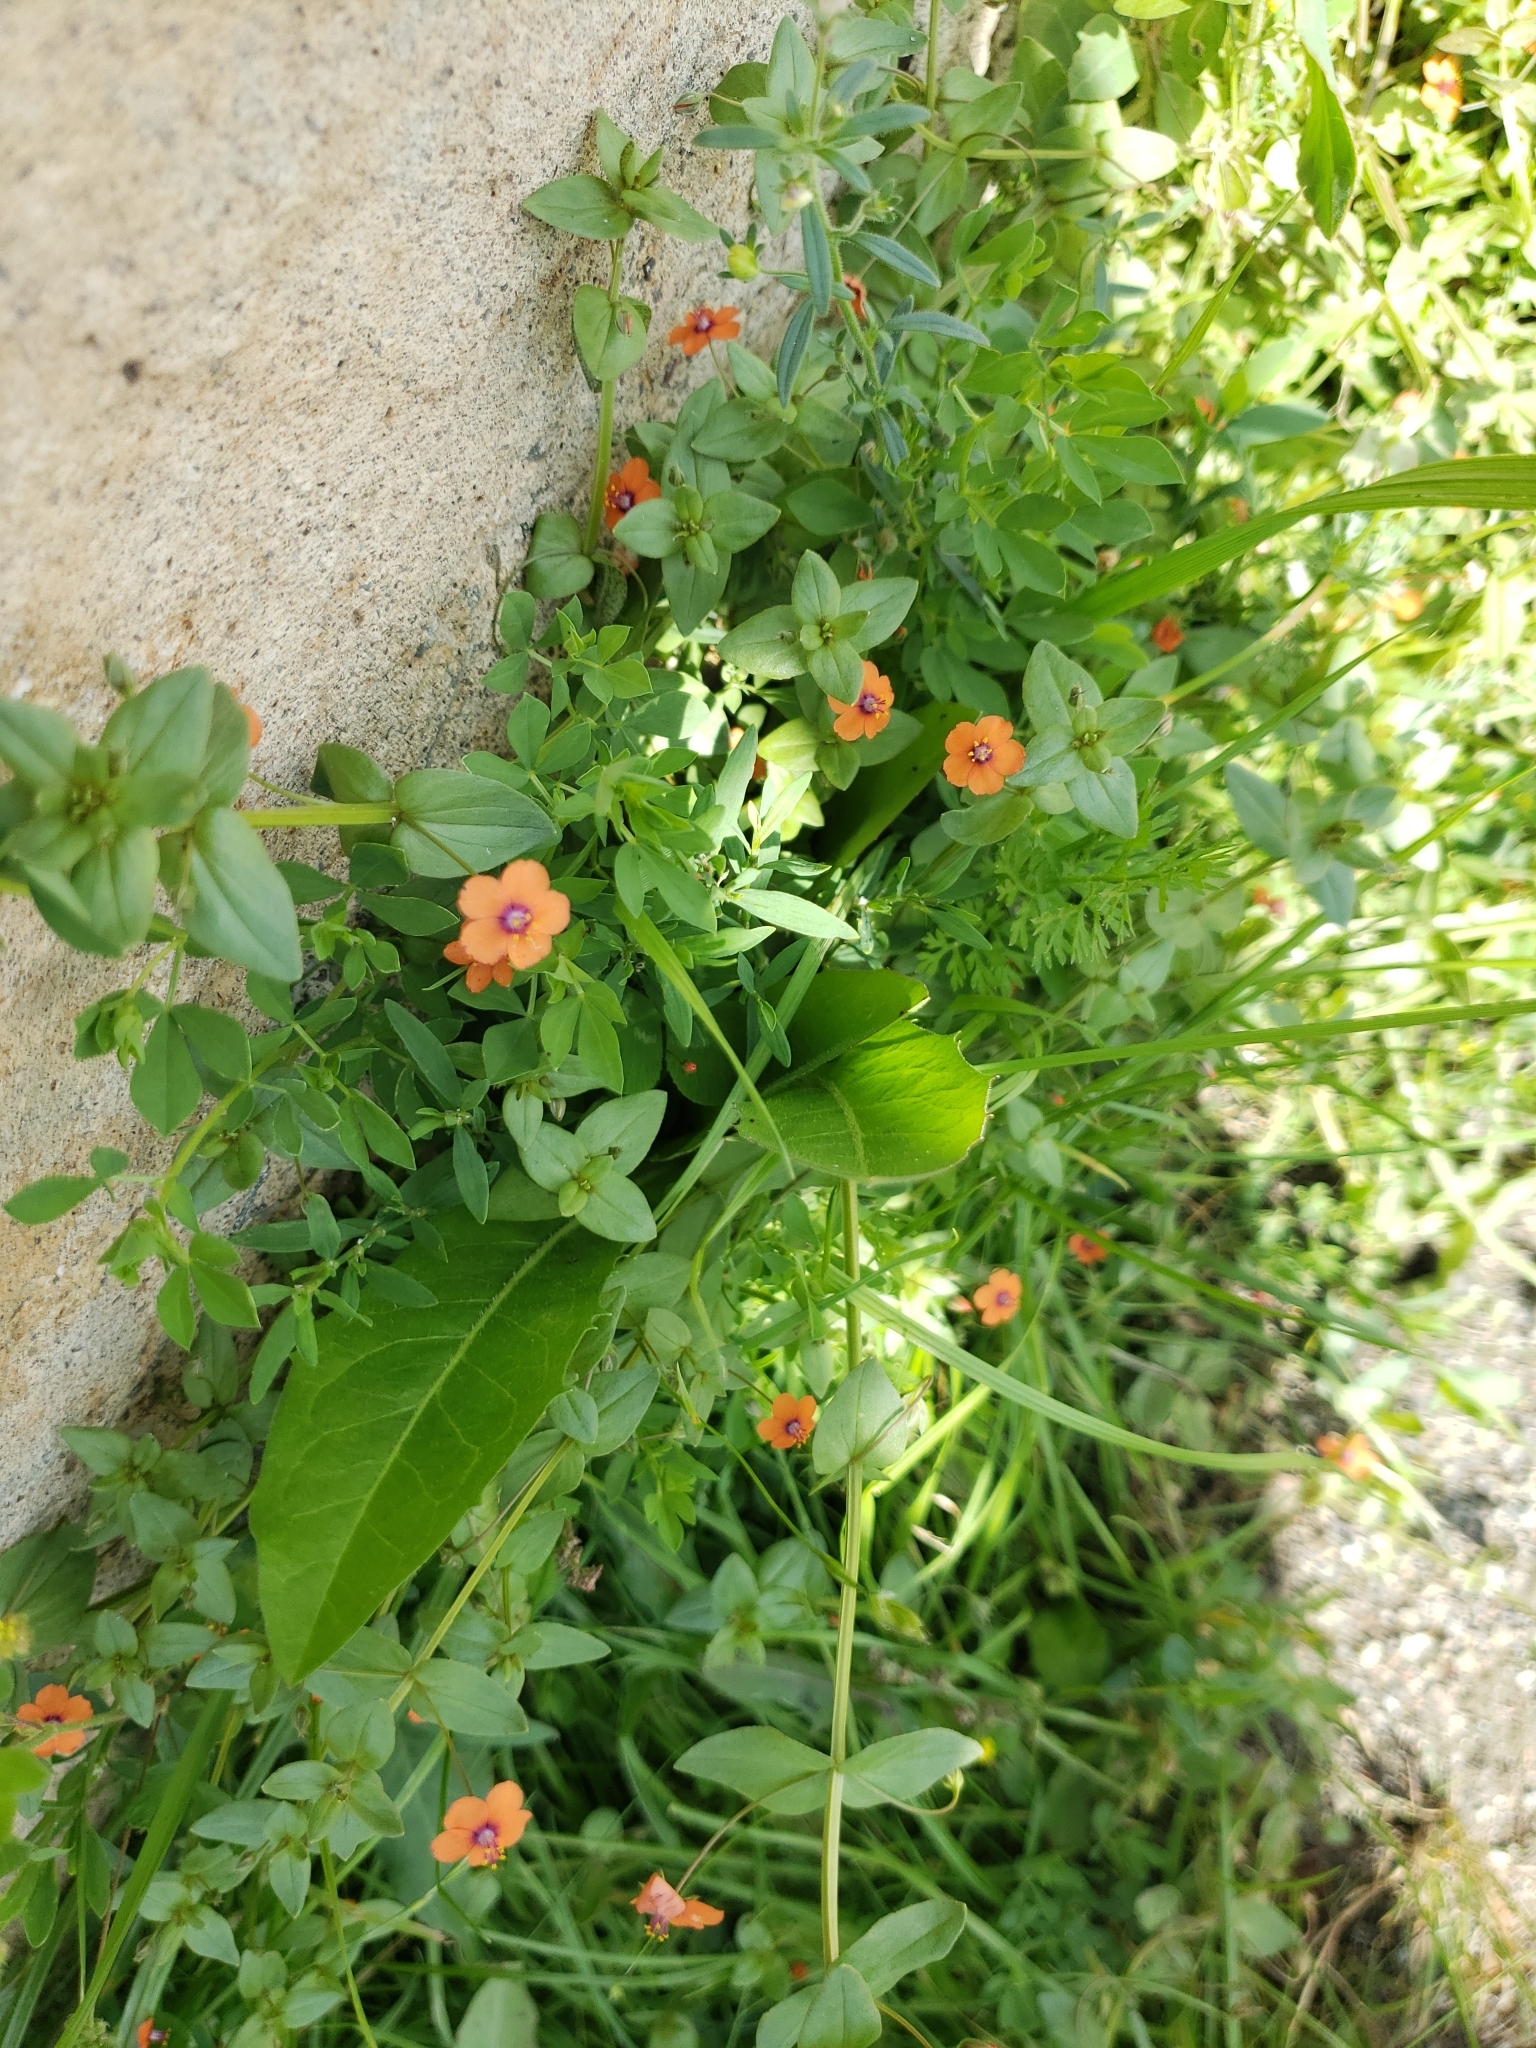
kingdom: Plantae
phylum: Tracheophyta
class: Magnoliopsida
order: Ericales
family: Primulaceae
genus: Lysimachia
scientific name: Lysimachia arvensis
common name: Scarlet pimpernel
